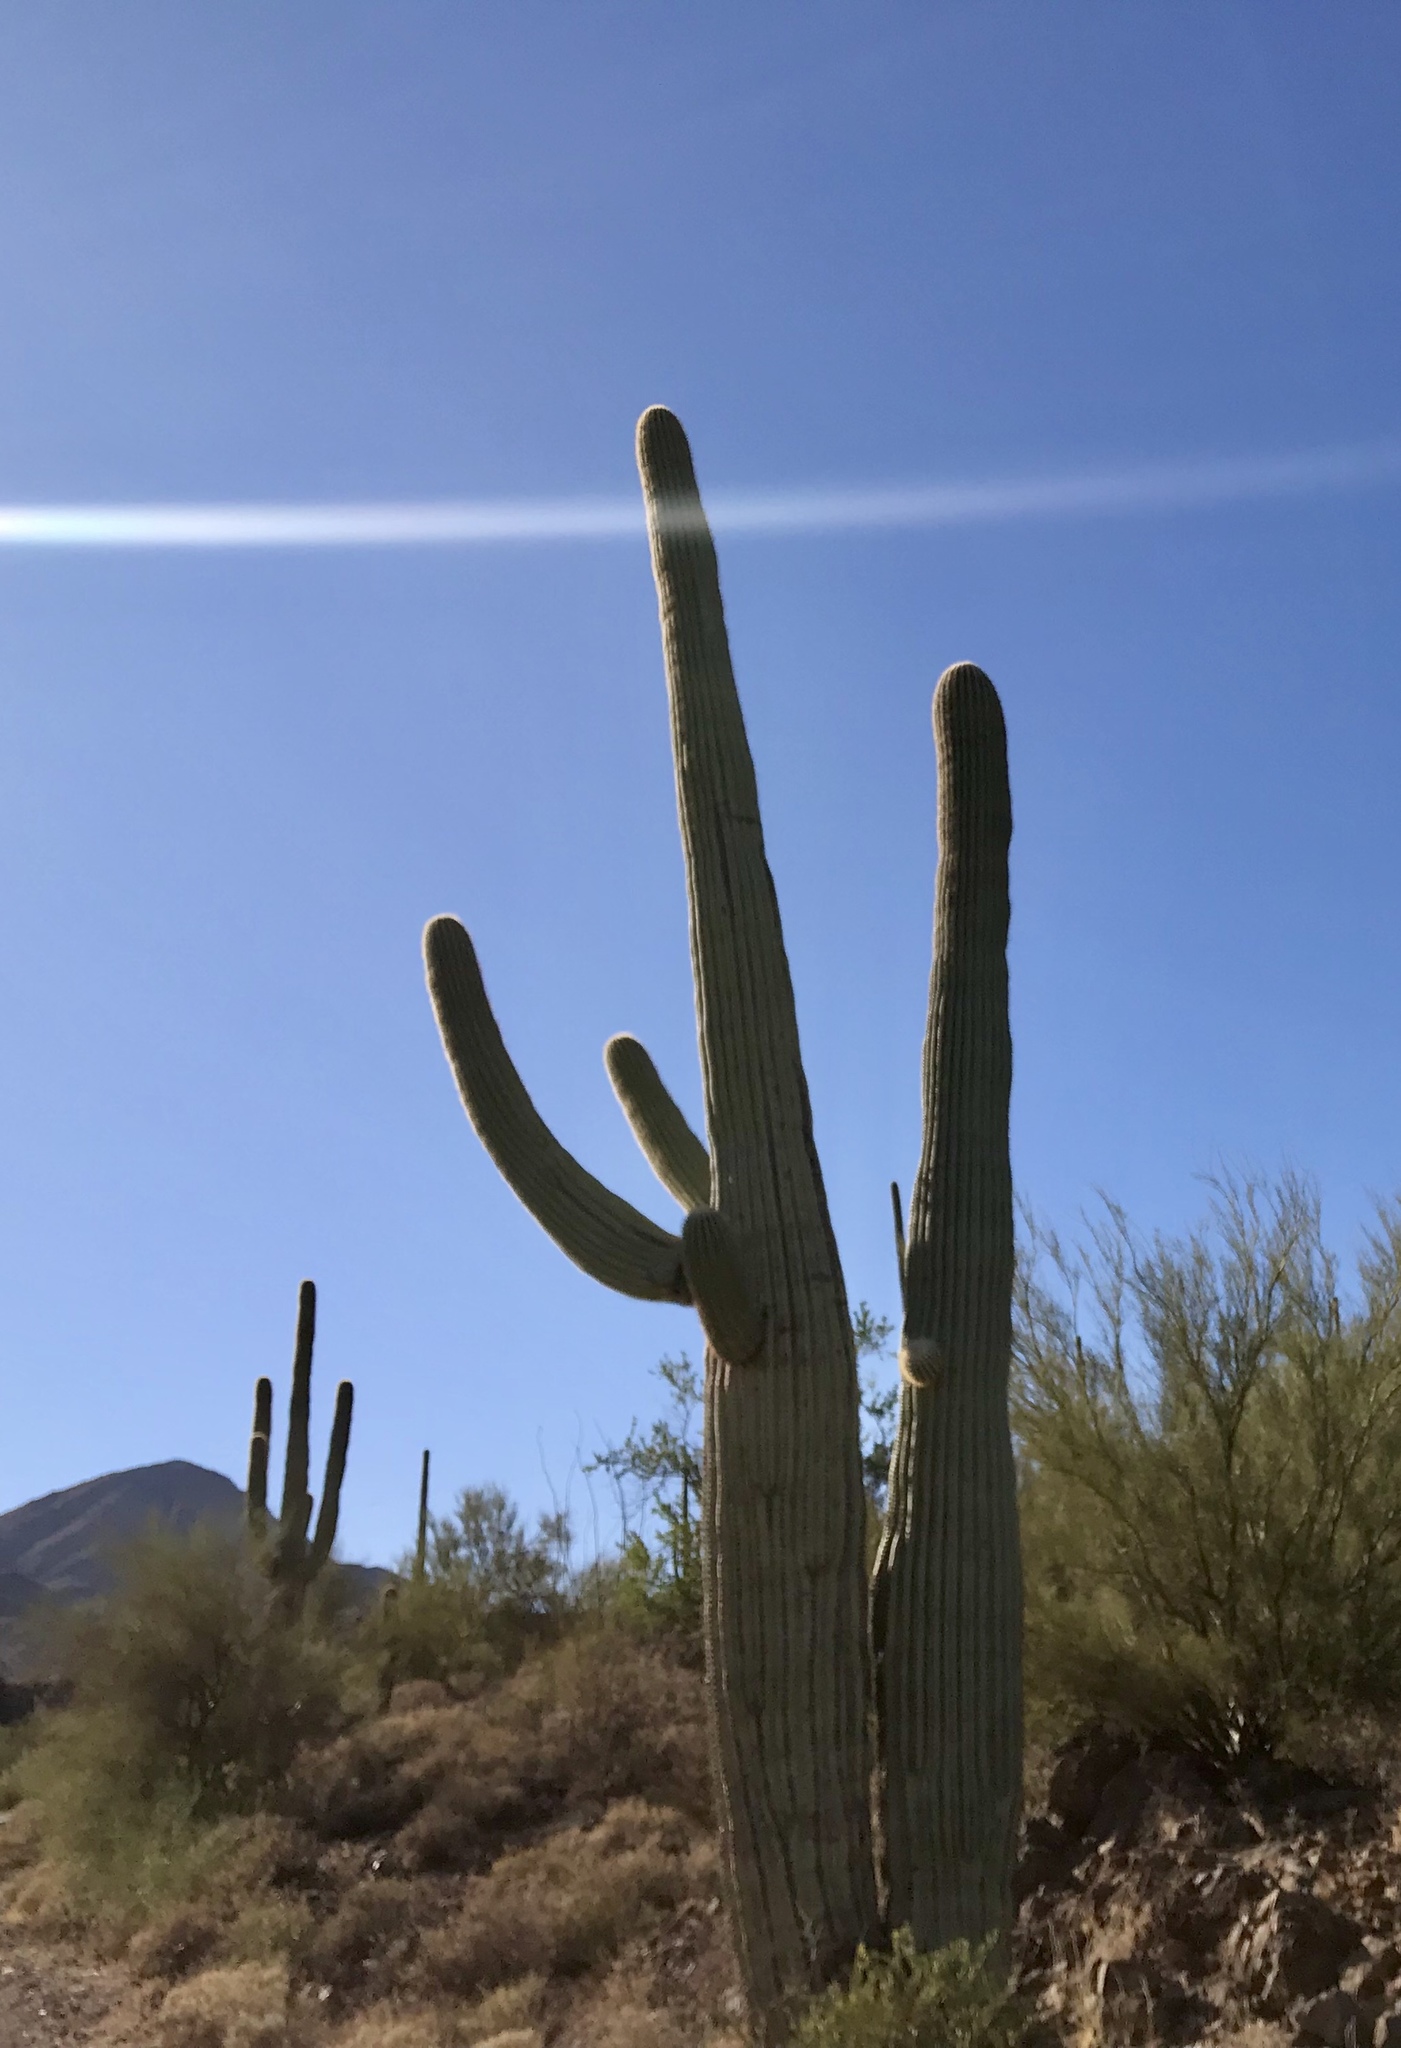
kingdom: Plantae
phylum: Tracheophyta
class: Magnoliopsida
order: Caryophyllales
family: Cactaceae
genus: Carnegiea
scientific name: Carnegiea gigantea
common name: Saguaro
